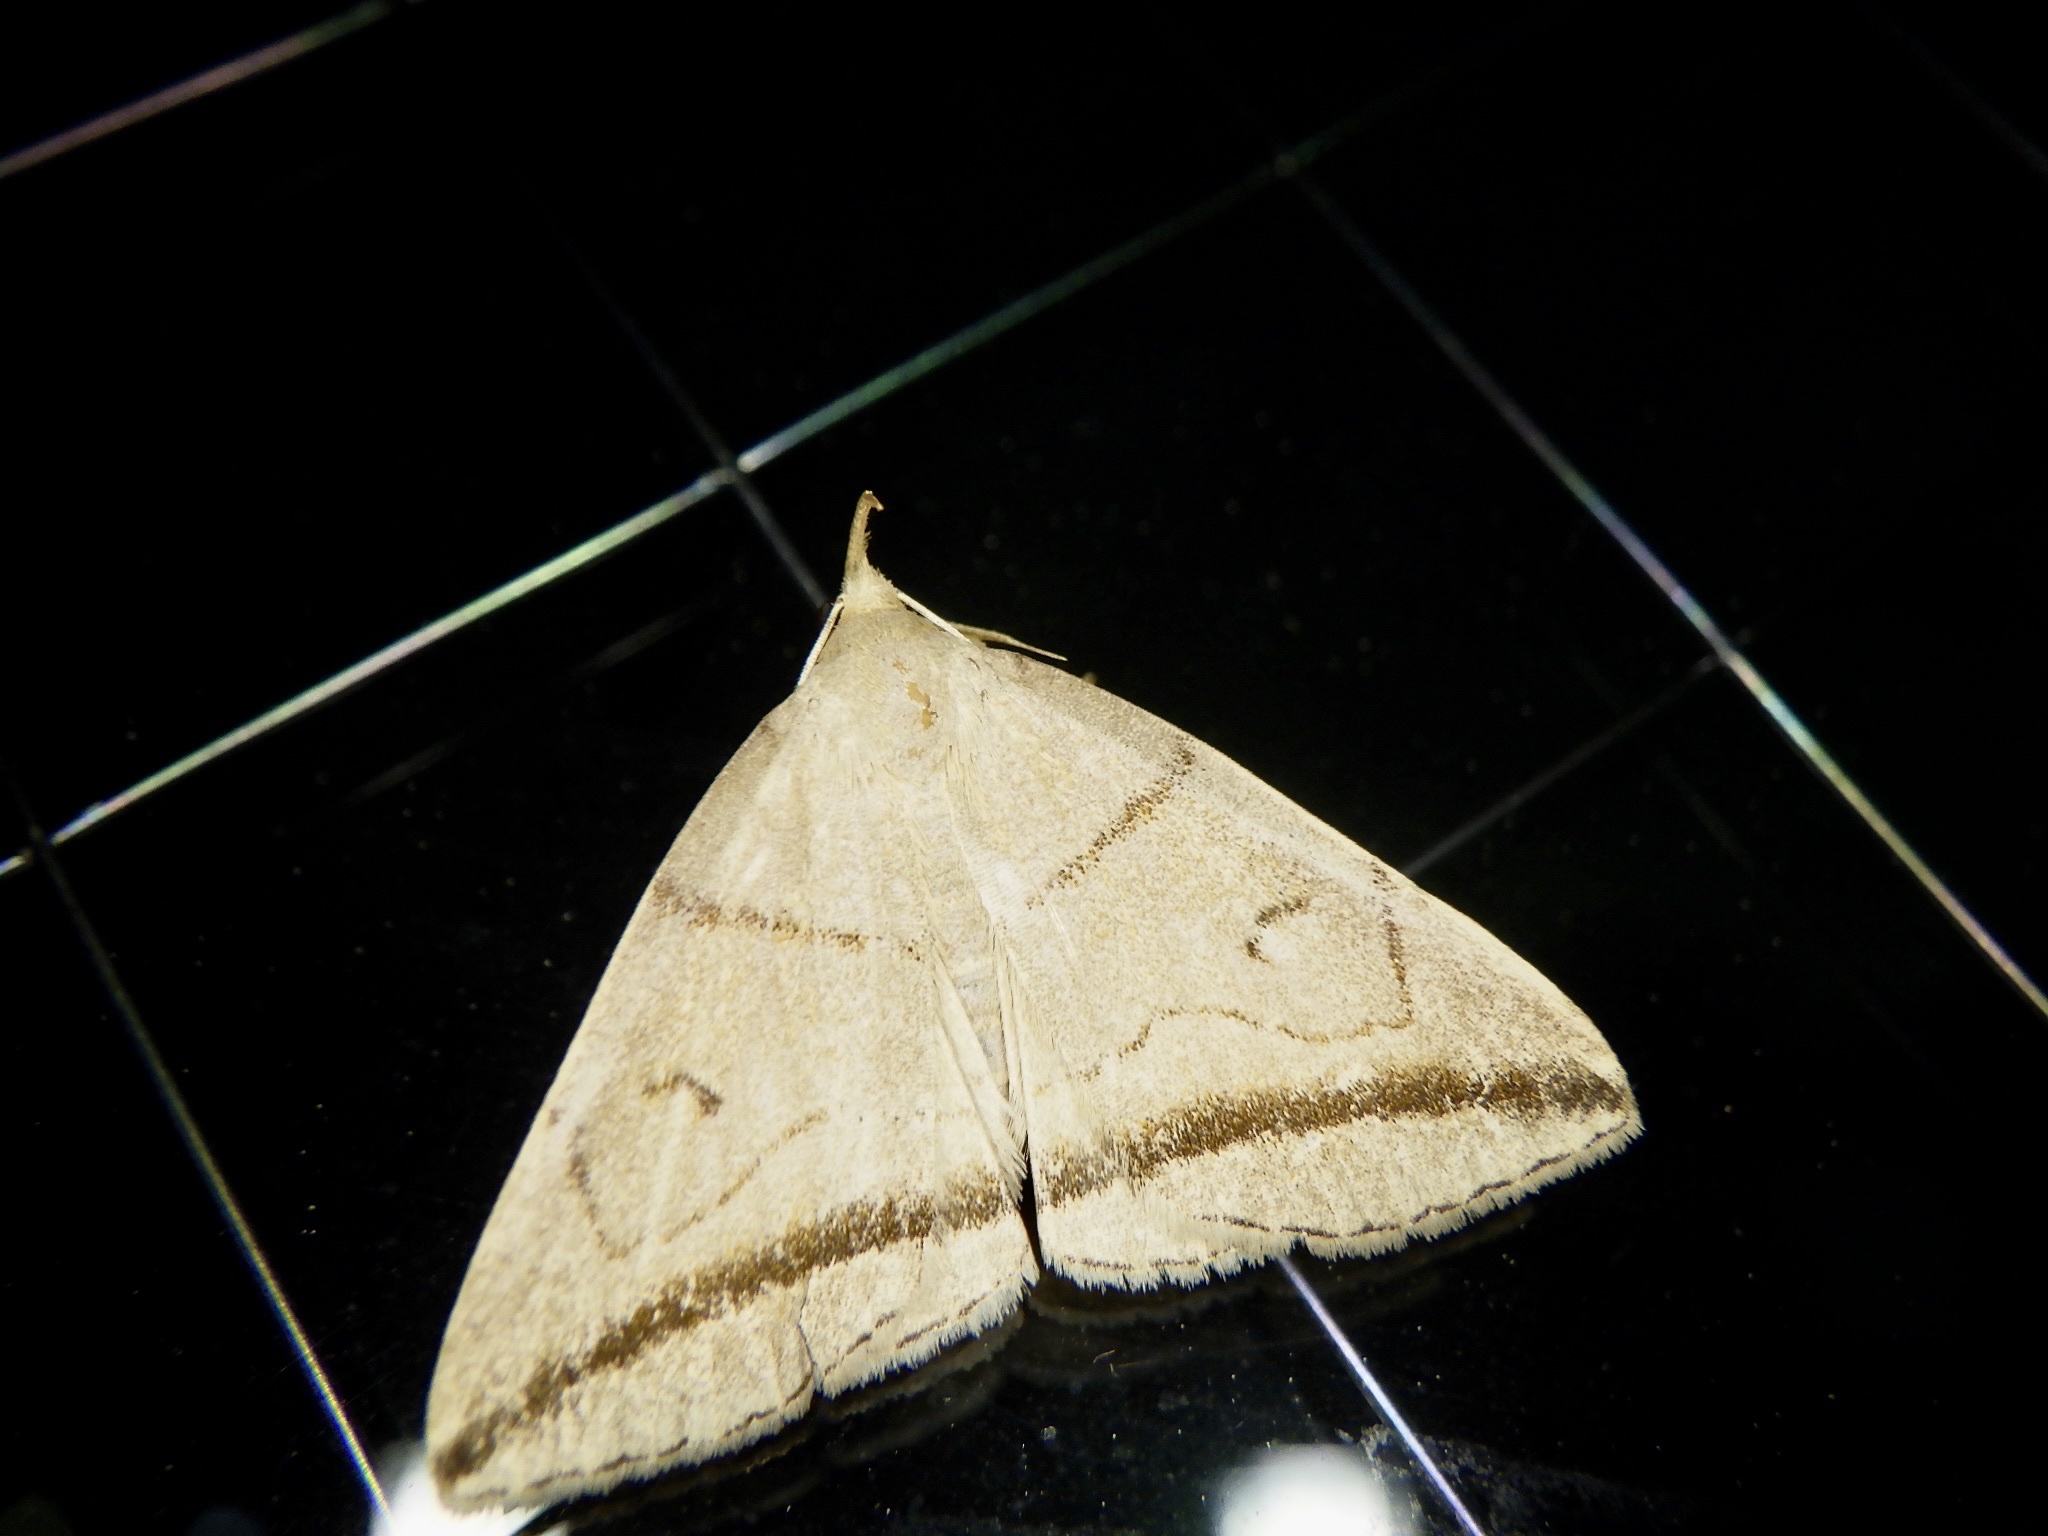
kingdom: Animalia
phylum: Arthropoda
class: Insecta
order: Lepidoptera
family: Erebidae
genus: Zanclognatha
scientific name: Zanclognatha griselda
